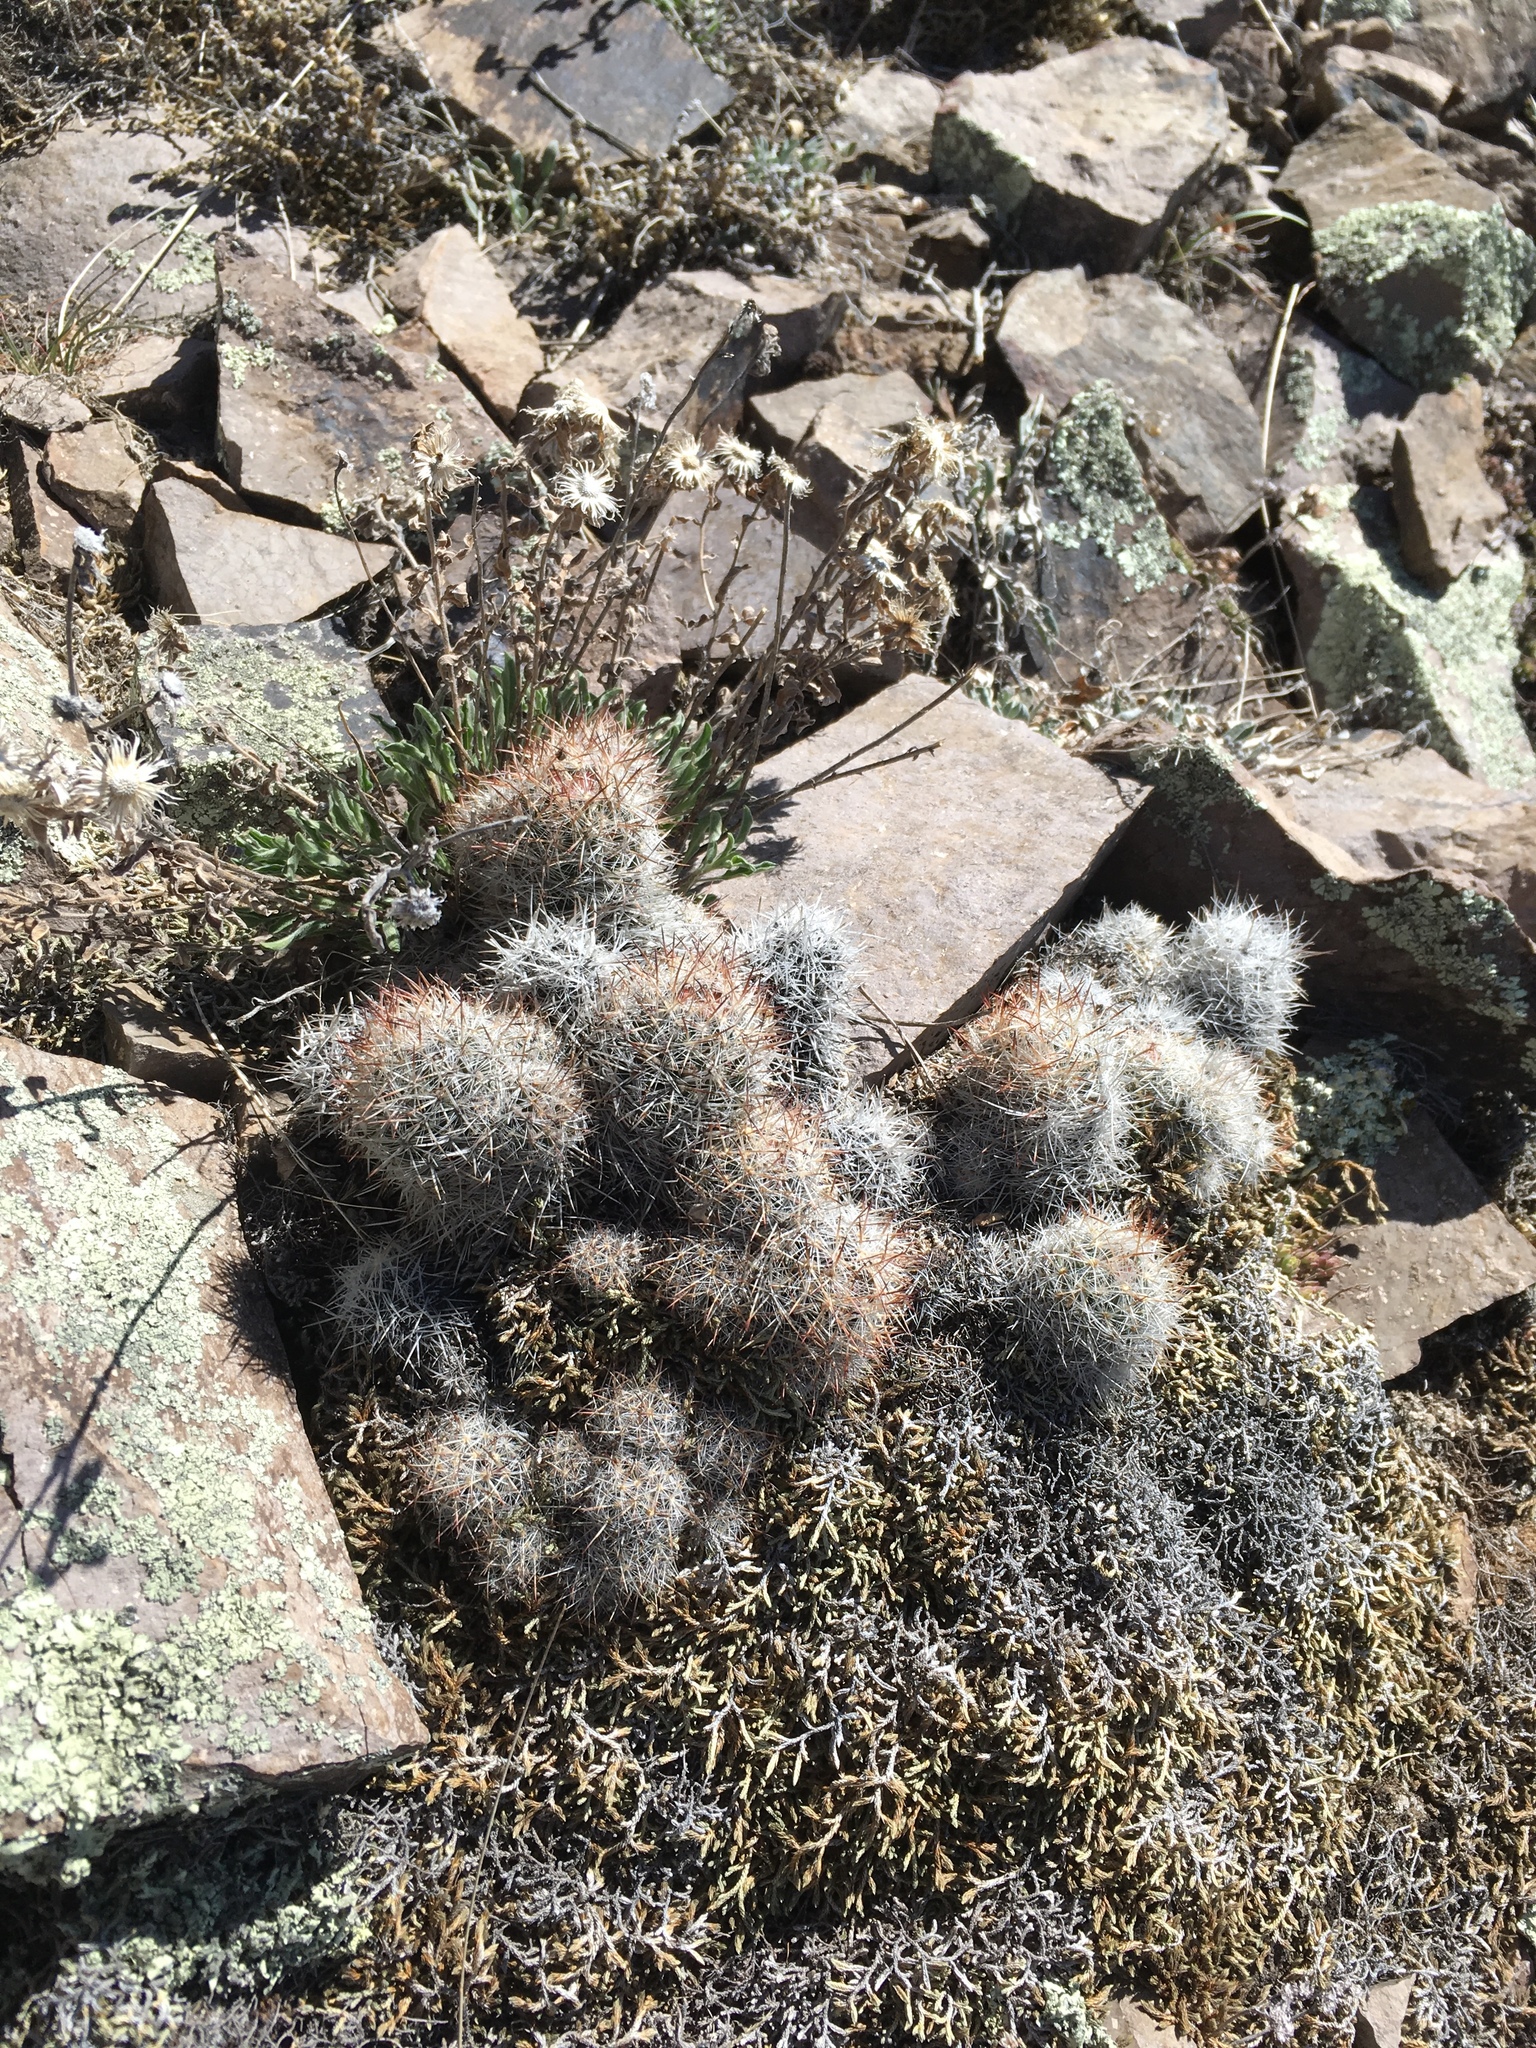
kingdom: Plantae
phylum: Tracheophyta
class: Magnoliopsida
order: Caryophyllales
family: Cactaceae
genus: Pelecyphora
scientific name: Pelecyphora sneedii
